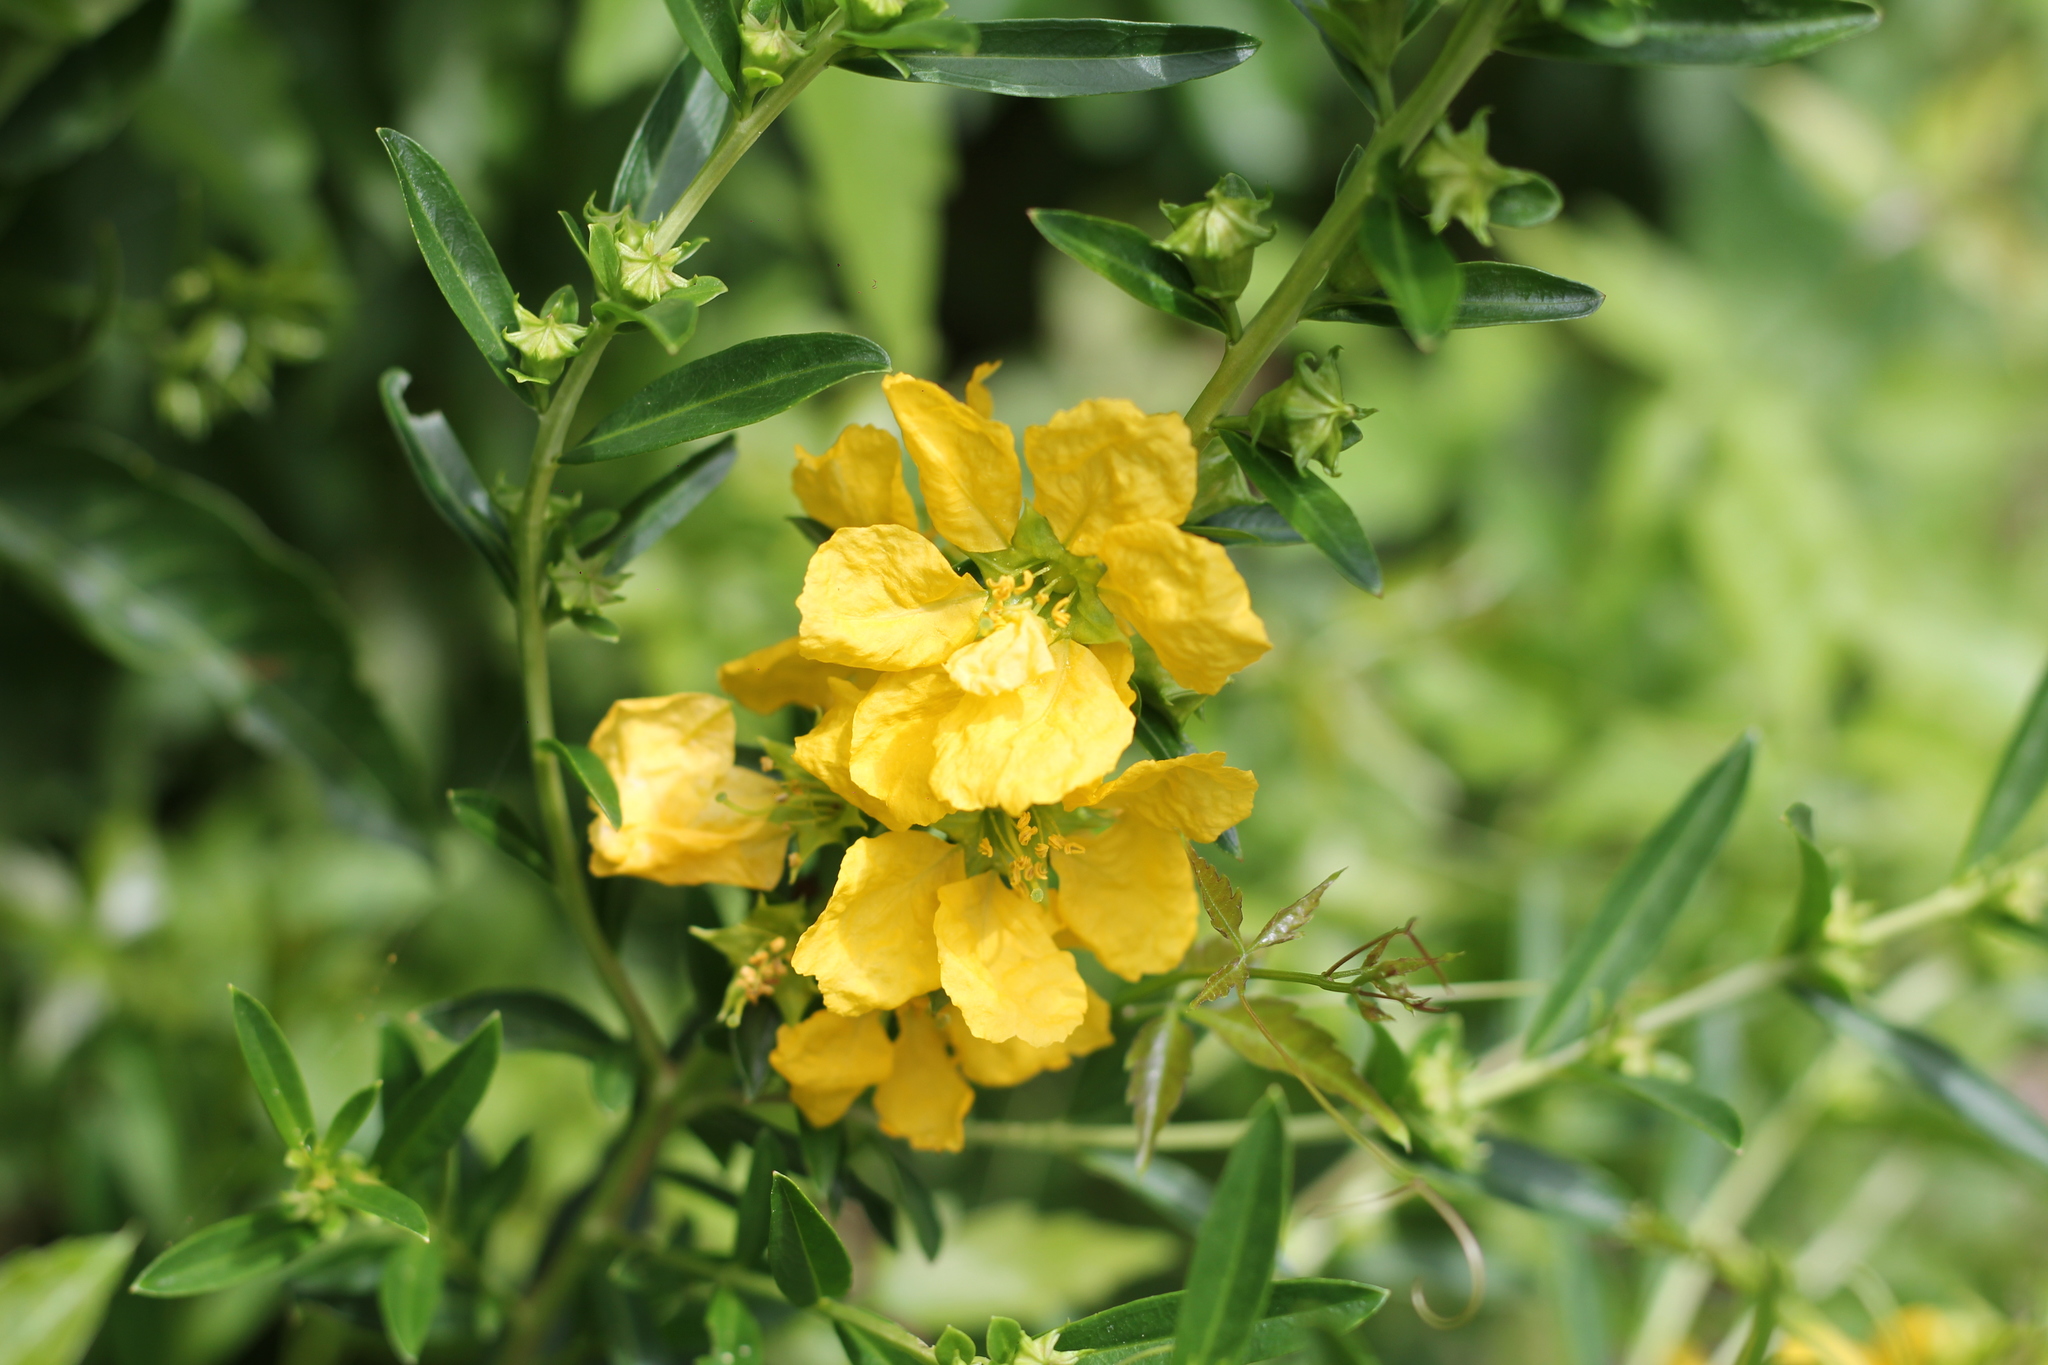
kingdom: Plantae
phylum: Tracheophyta
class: Magnoliopsida
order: Myrtales
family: Lythraceae
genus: Heimia
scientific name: Heimia salicifolia
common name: Willow-leaf heimia
